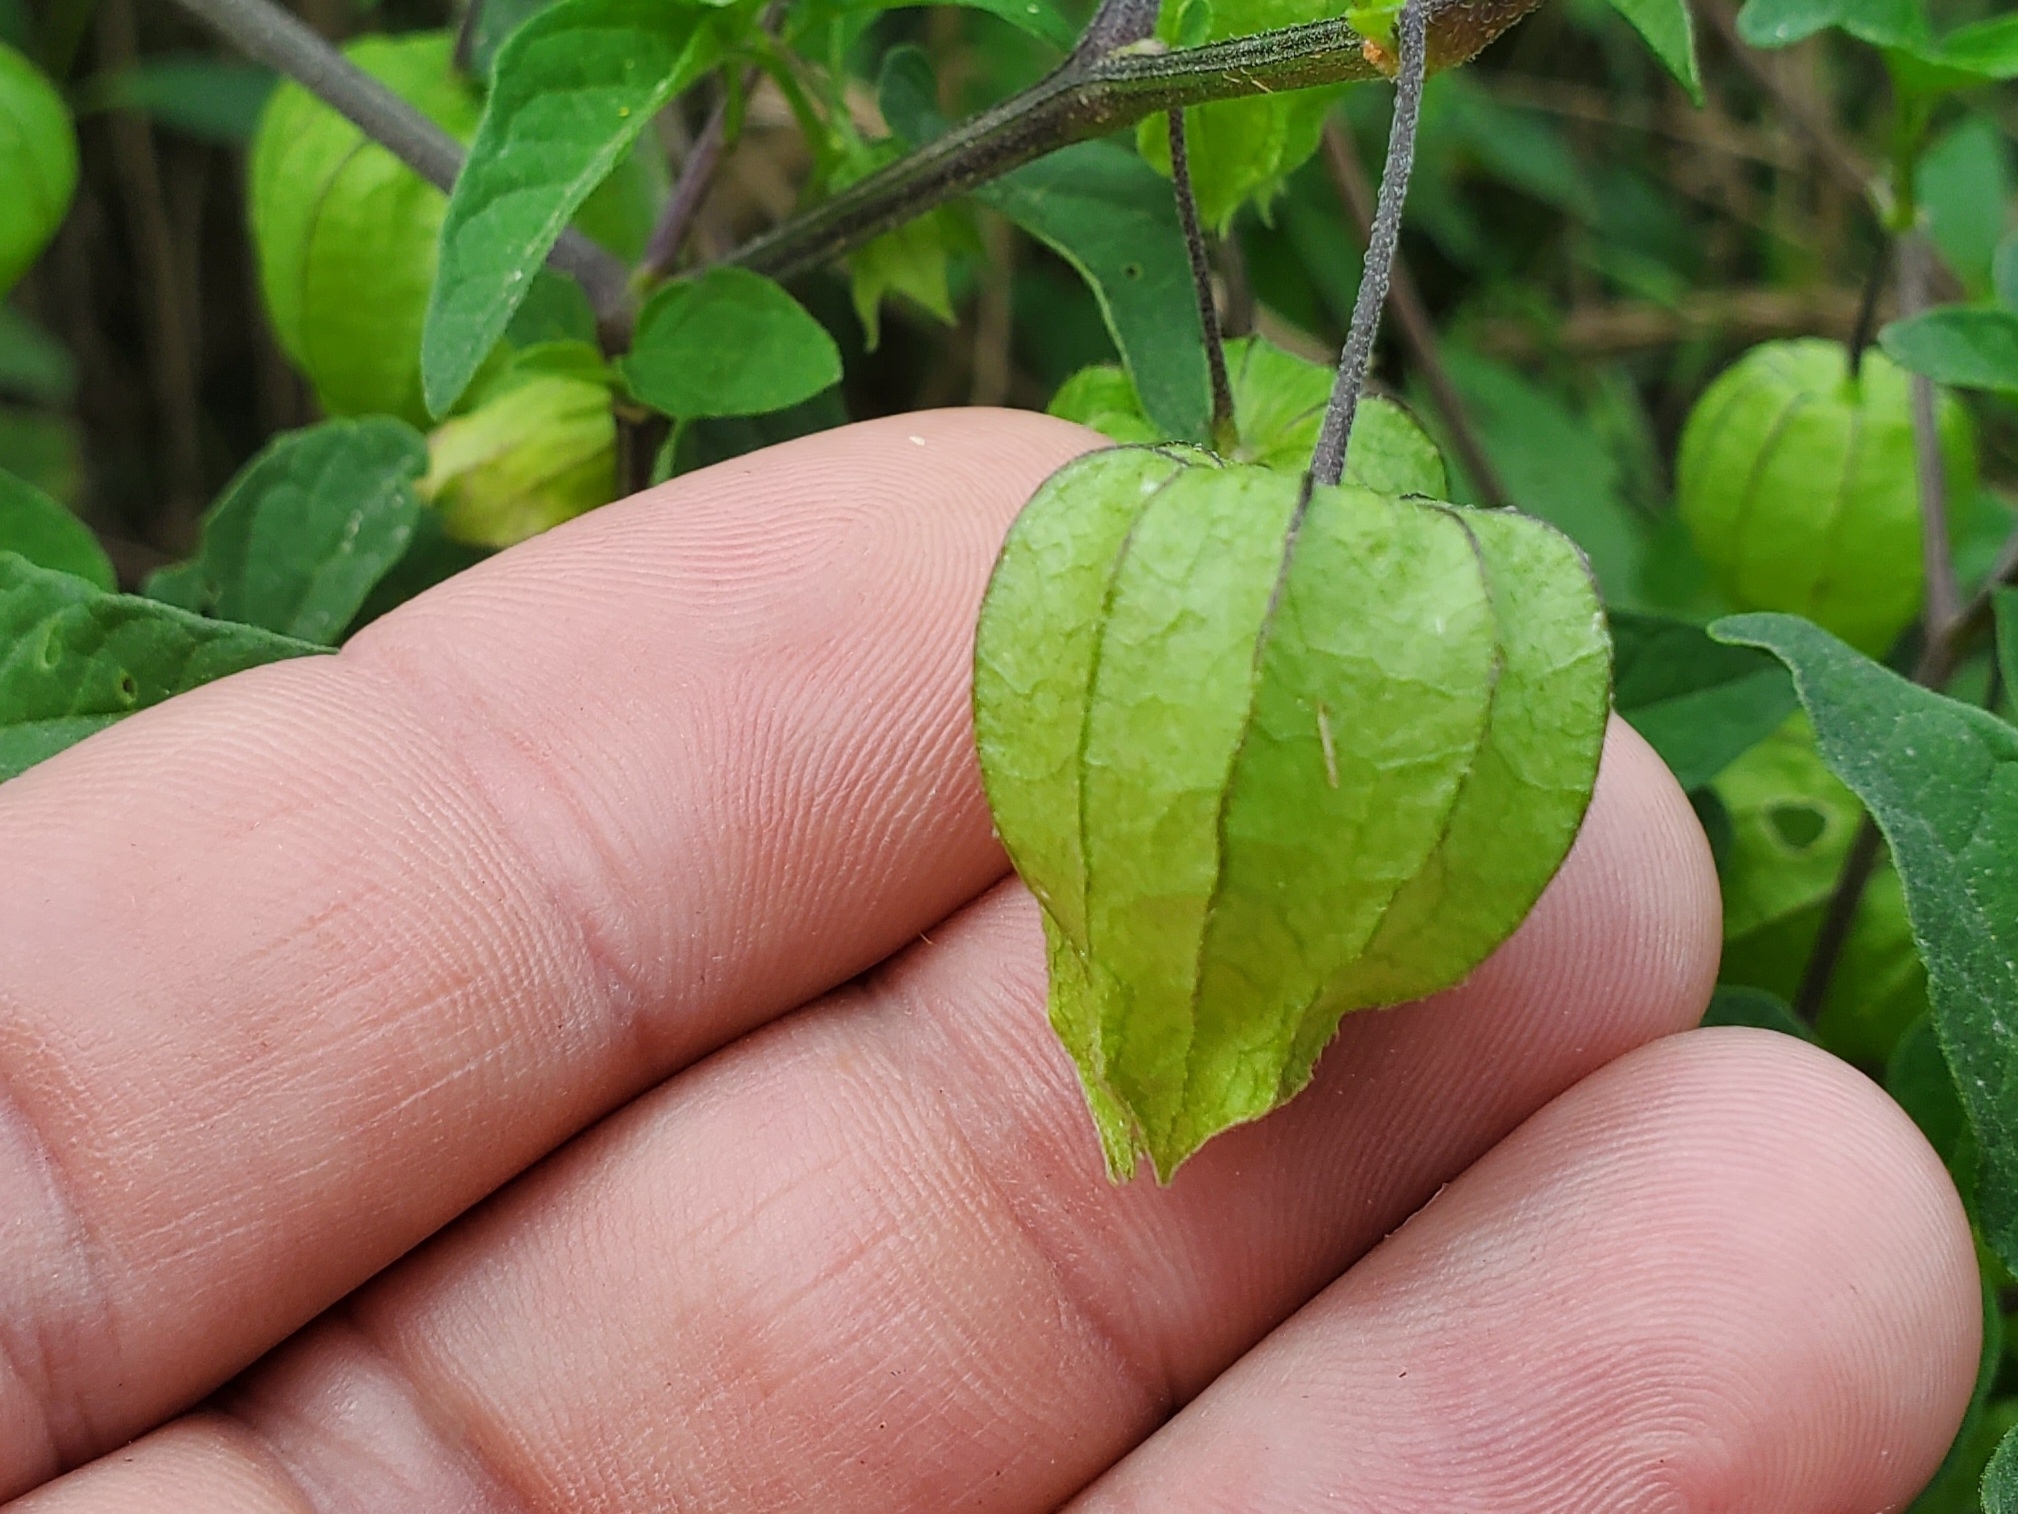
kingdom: Plantae
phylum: Tracheophyta
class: Magnoliopsida
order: Solanales
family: Solanaceae
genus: Physalis
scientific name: Physalis longifolia
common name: Common ground-cherry
